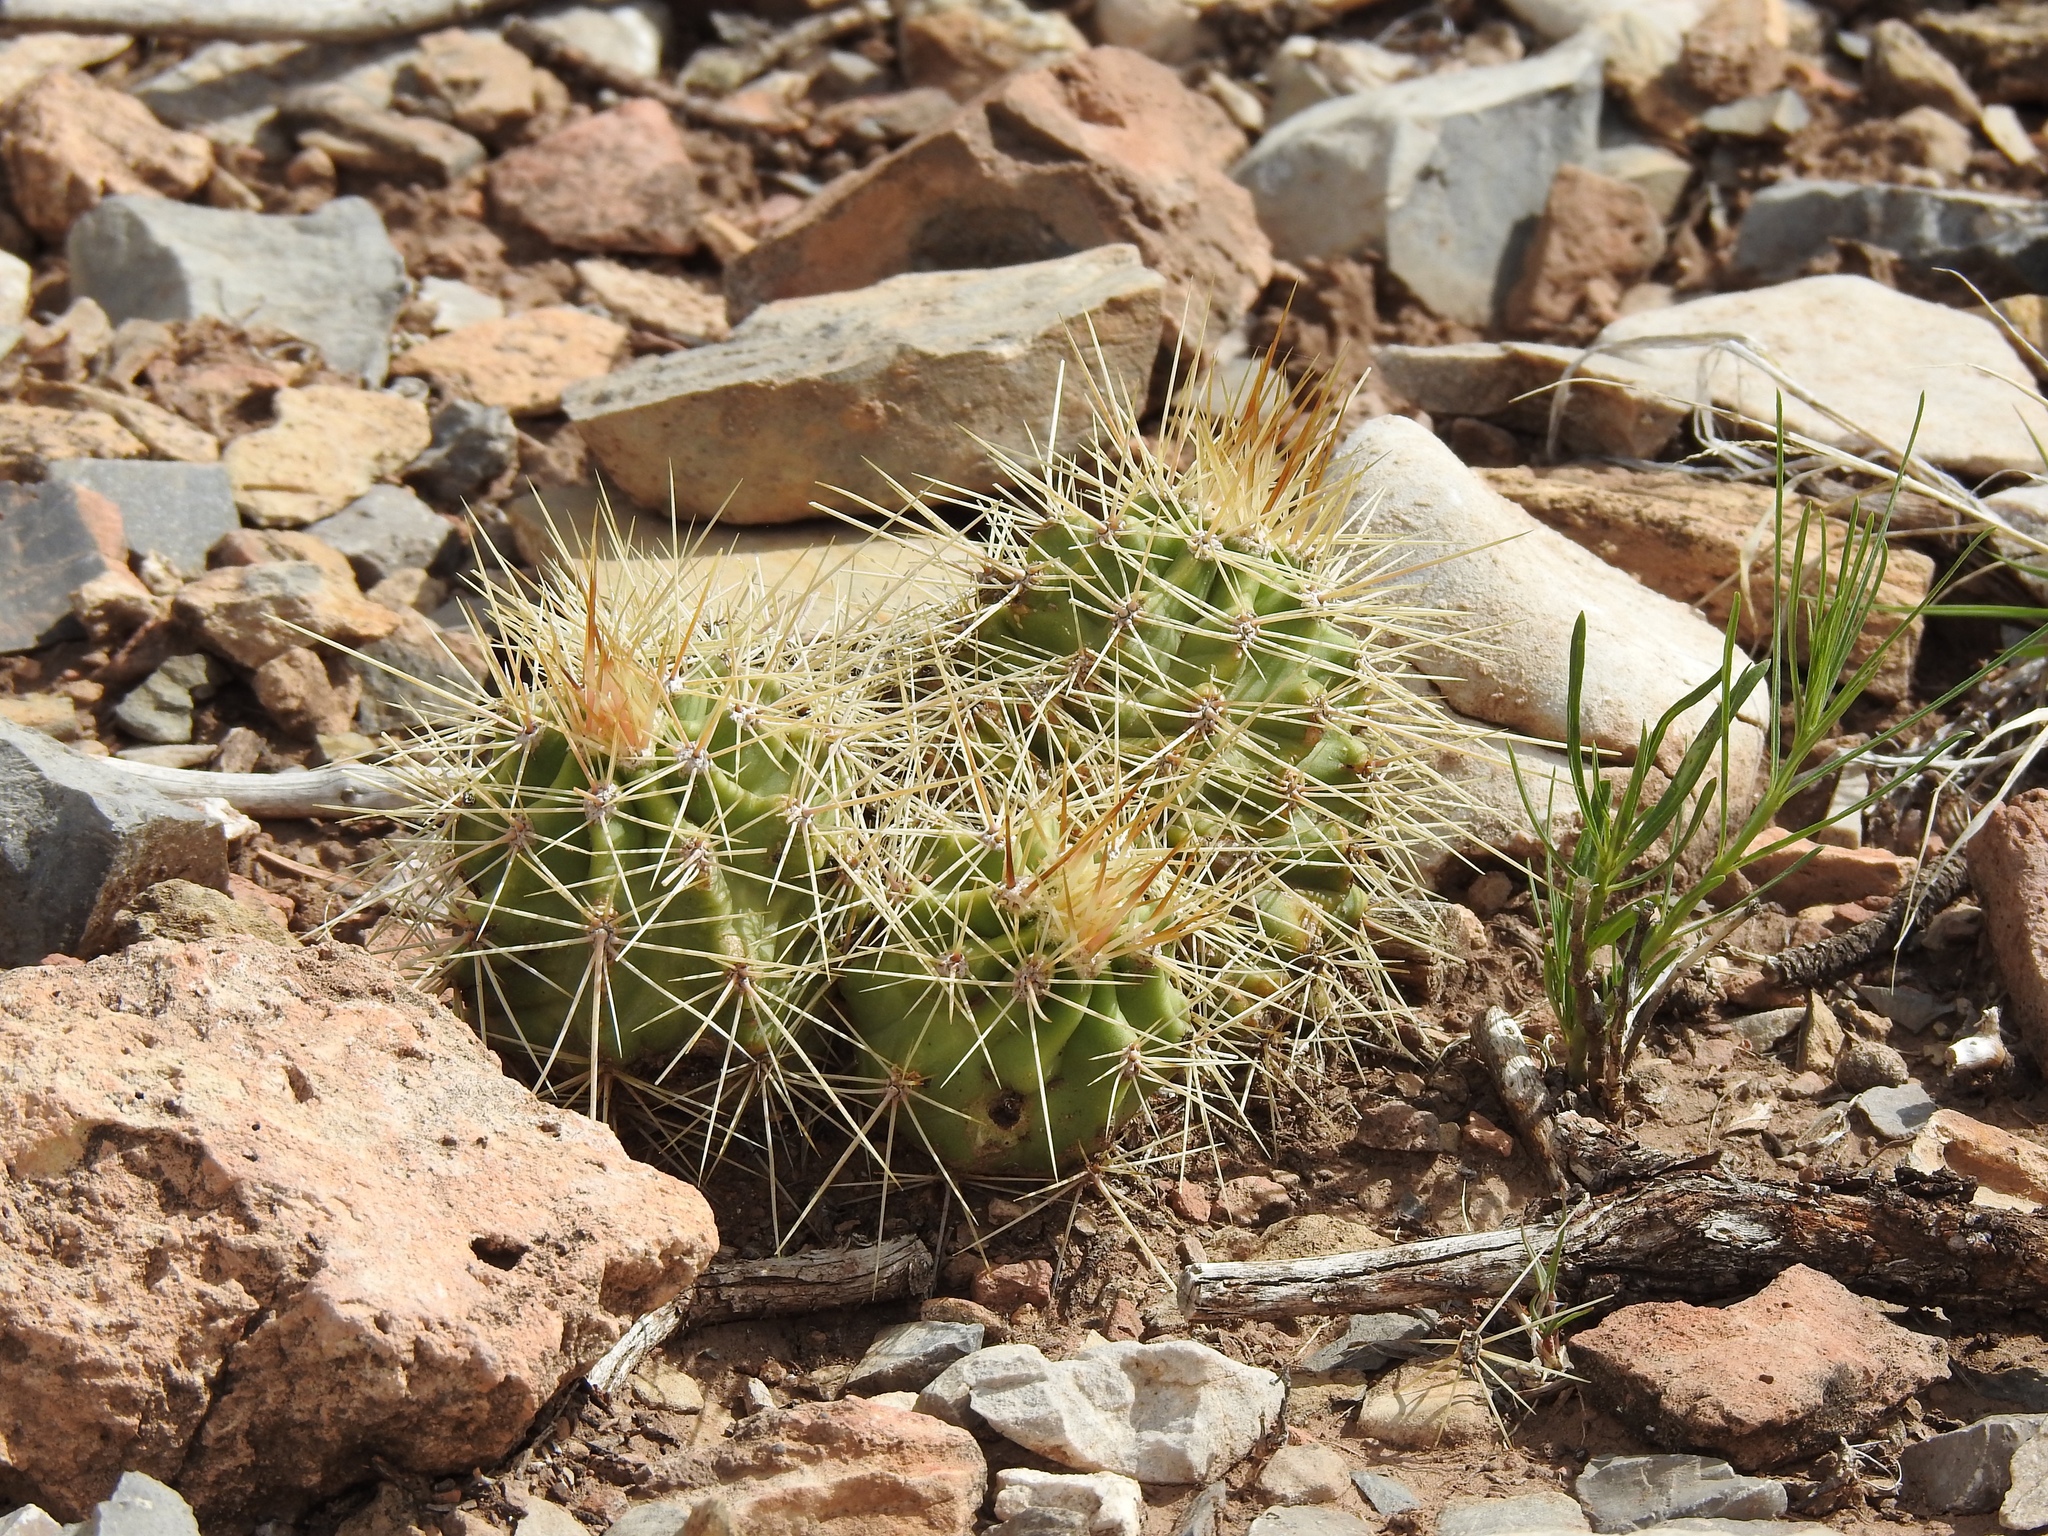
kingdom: Plantae
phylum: Tracheophyta
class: Magnoliopsida
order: Caryophyllales
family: Cactaceae
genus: Echinocereus
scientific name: Echinocereus coccineus
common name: Scarlet hedgehog cactus
